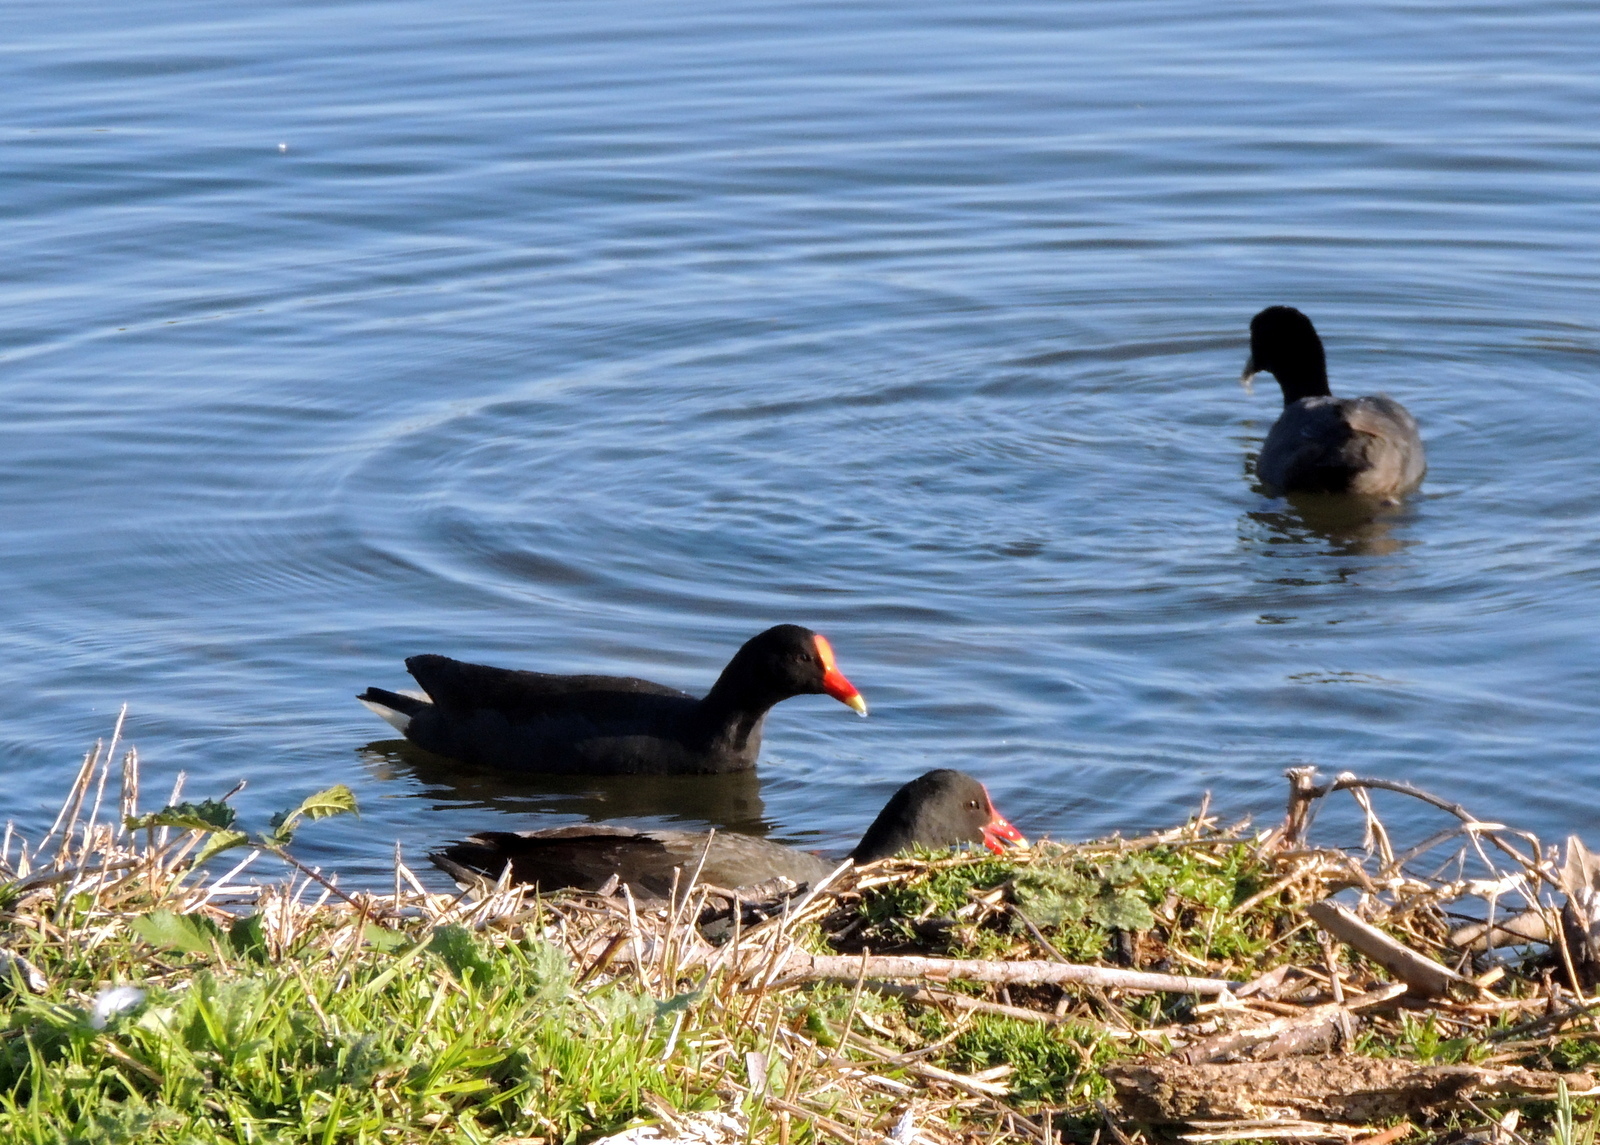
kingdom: Animalia
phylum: Chordata
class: Aves
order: Gruiformes
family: Rallidae
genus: Gallinula
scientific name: Gallinula tenebrosa
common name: Dusky moorhen
